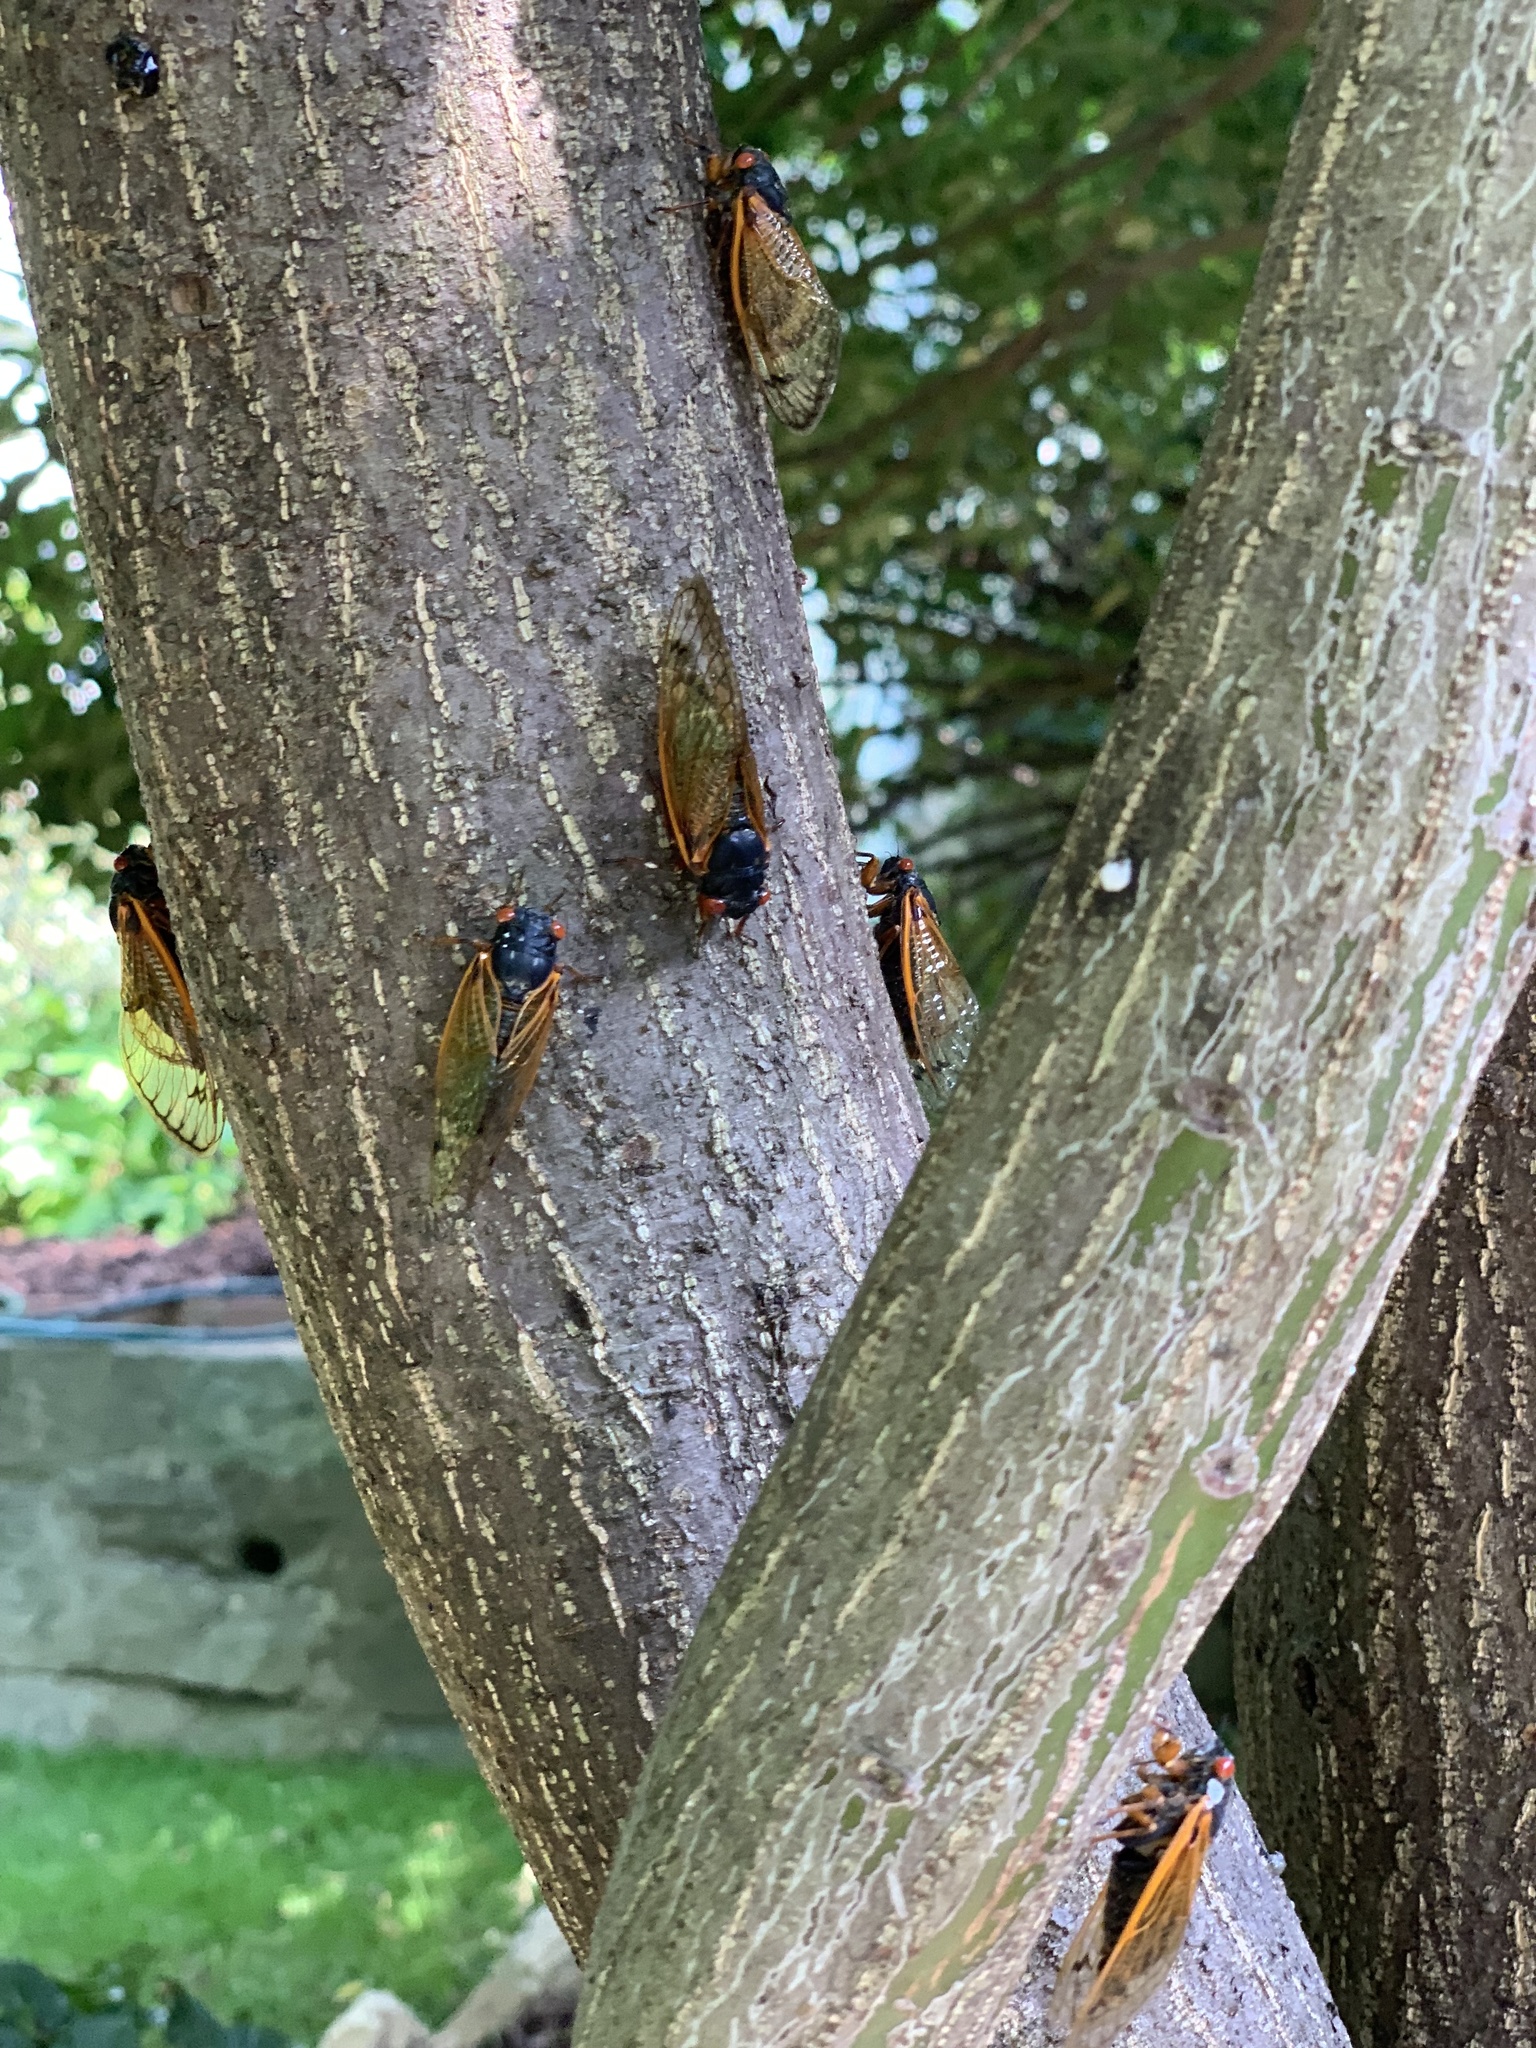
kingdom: Animalia
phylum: Arthropoda
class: Insecta
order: Hemiptera
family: Cicadidae
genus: Magicicada
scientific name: Magicicada
